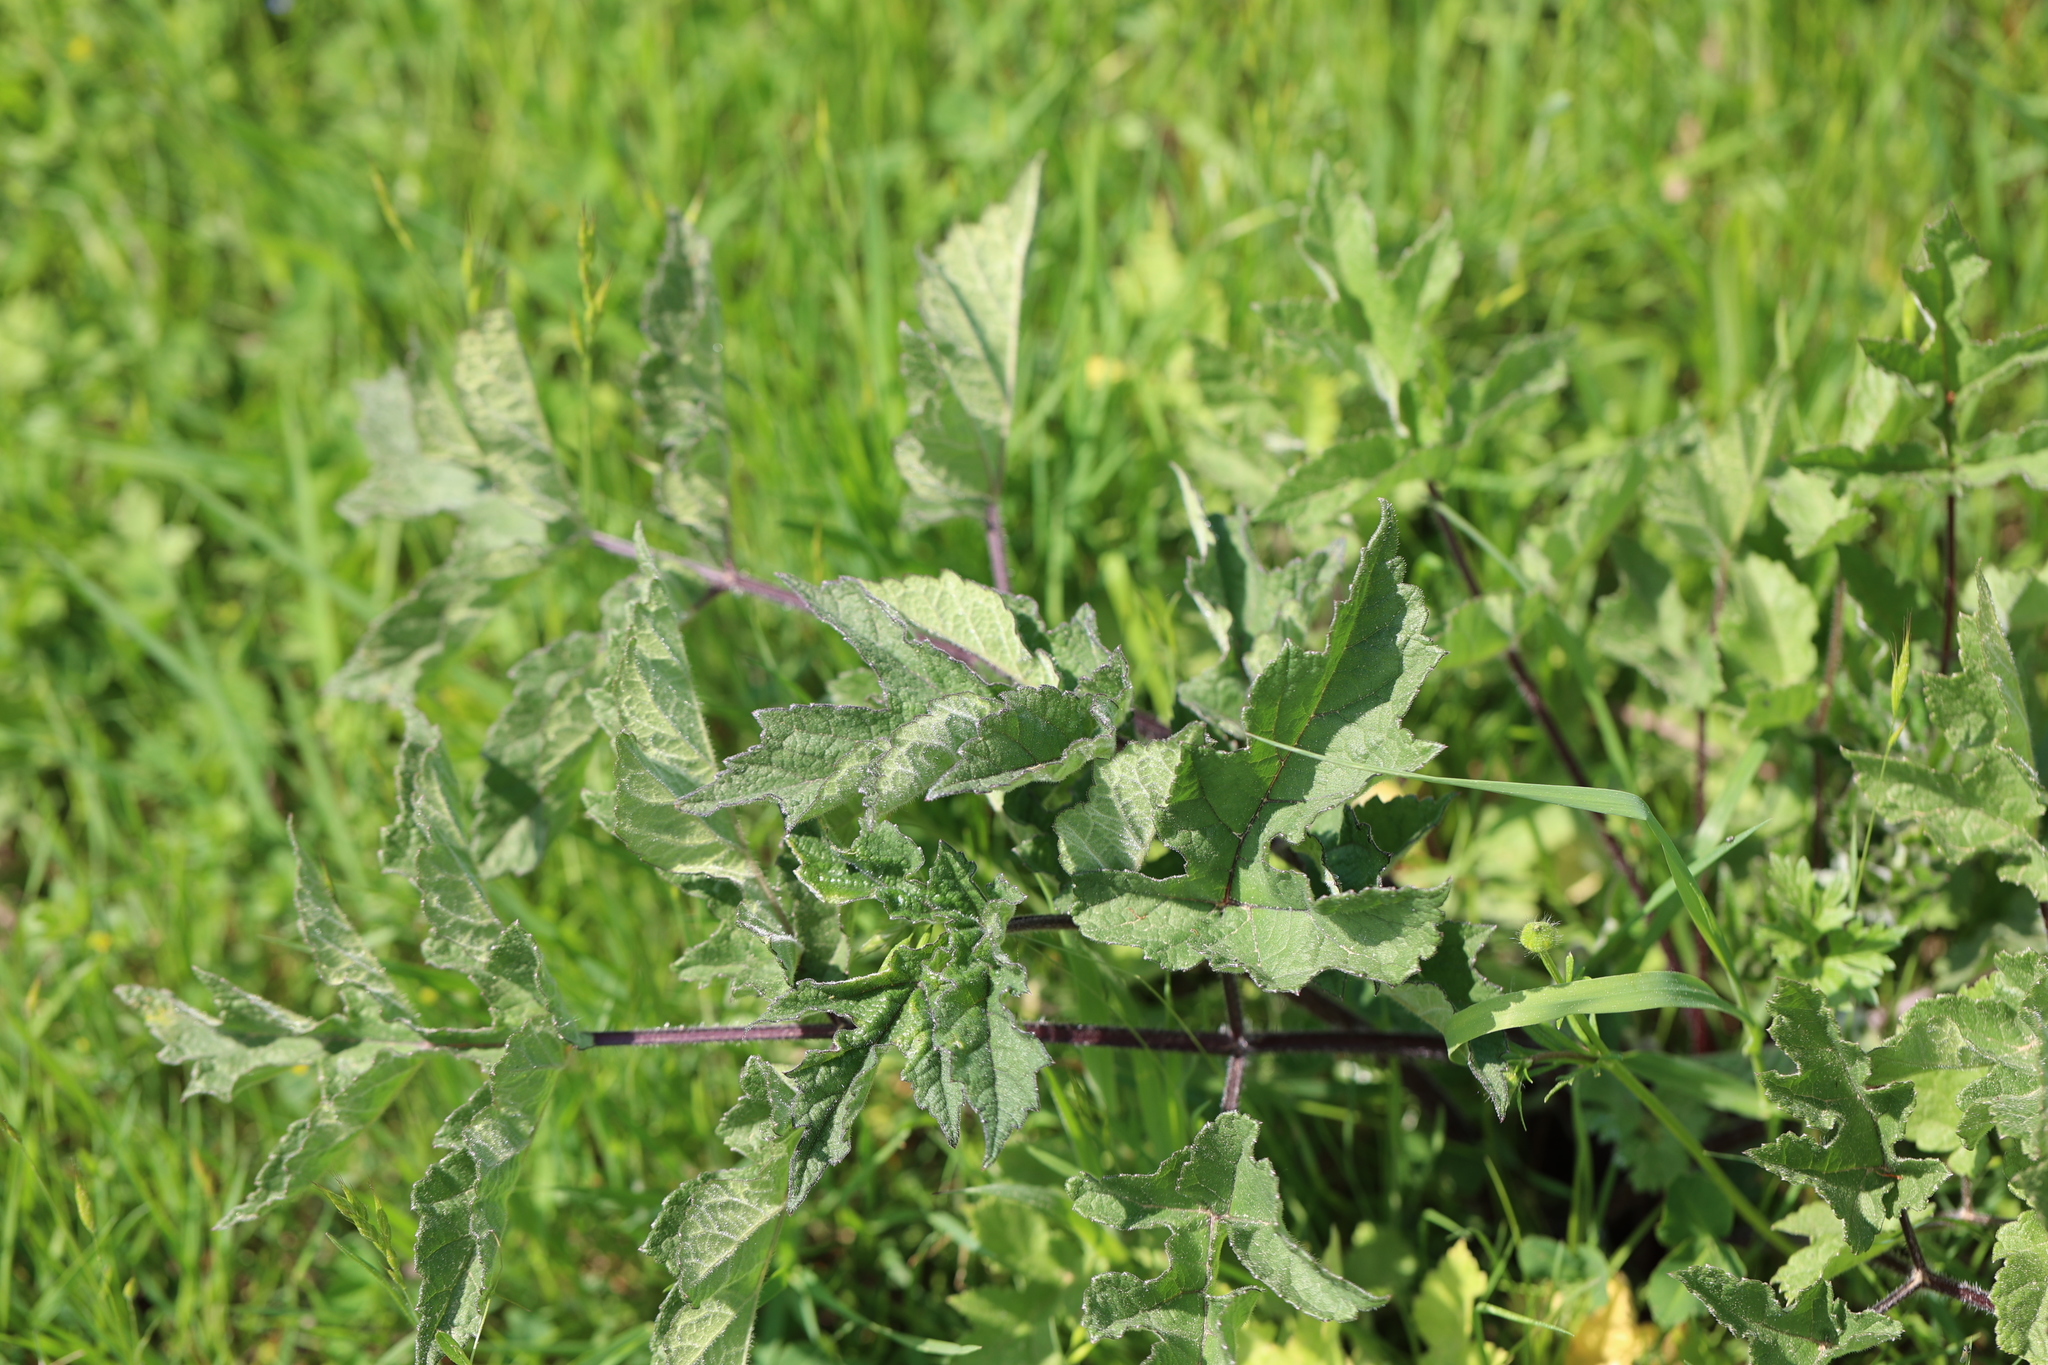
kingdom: Plantae
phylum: Tracheophyta
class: Magnoliopsida
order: Apiales
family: Apiaceae
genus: Heracleum
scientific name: Heracleum sphondylium
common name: Hogweed
